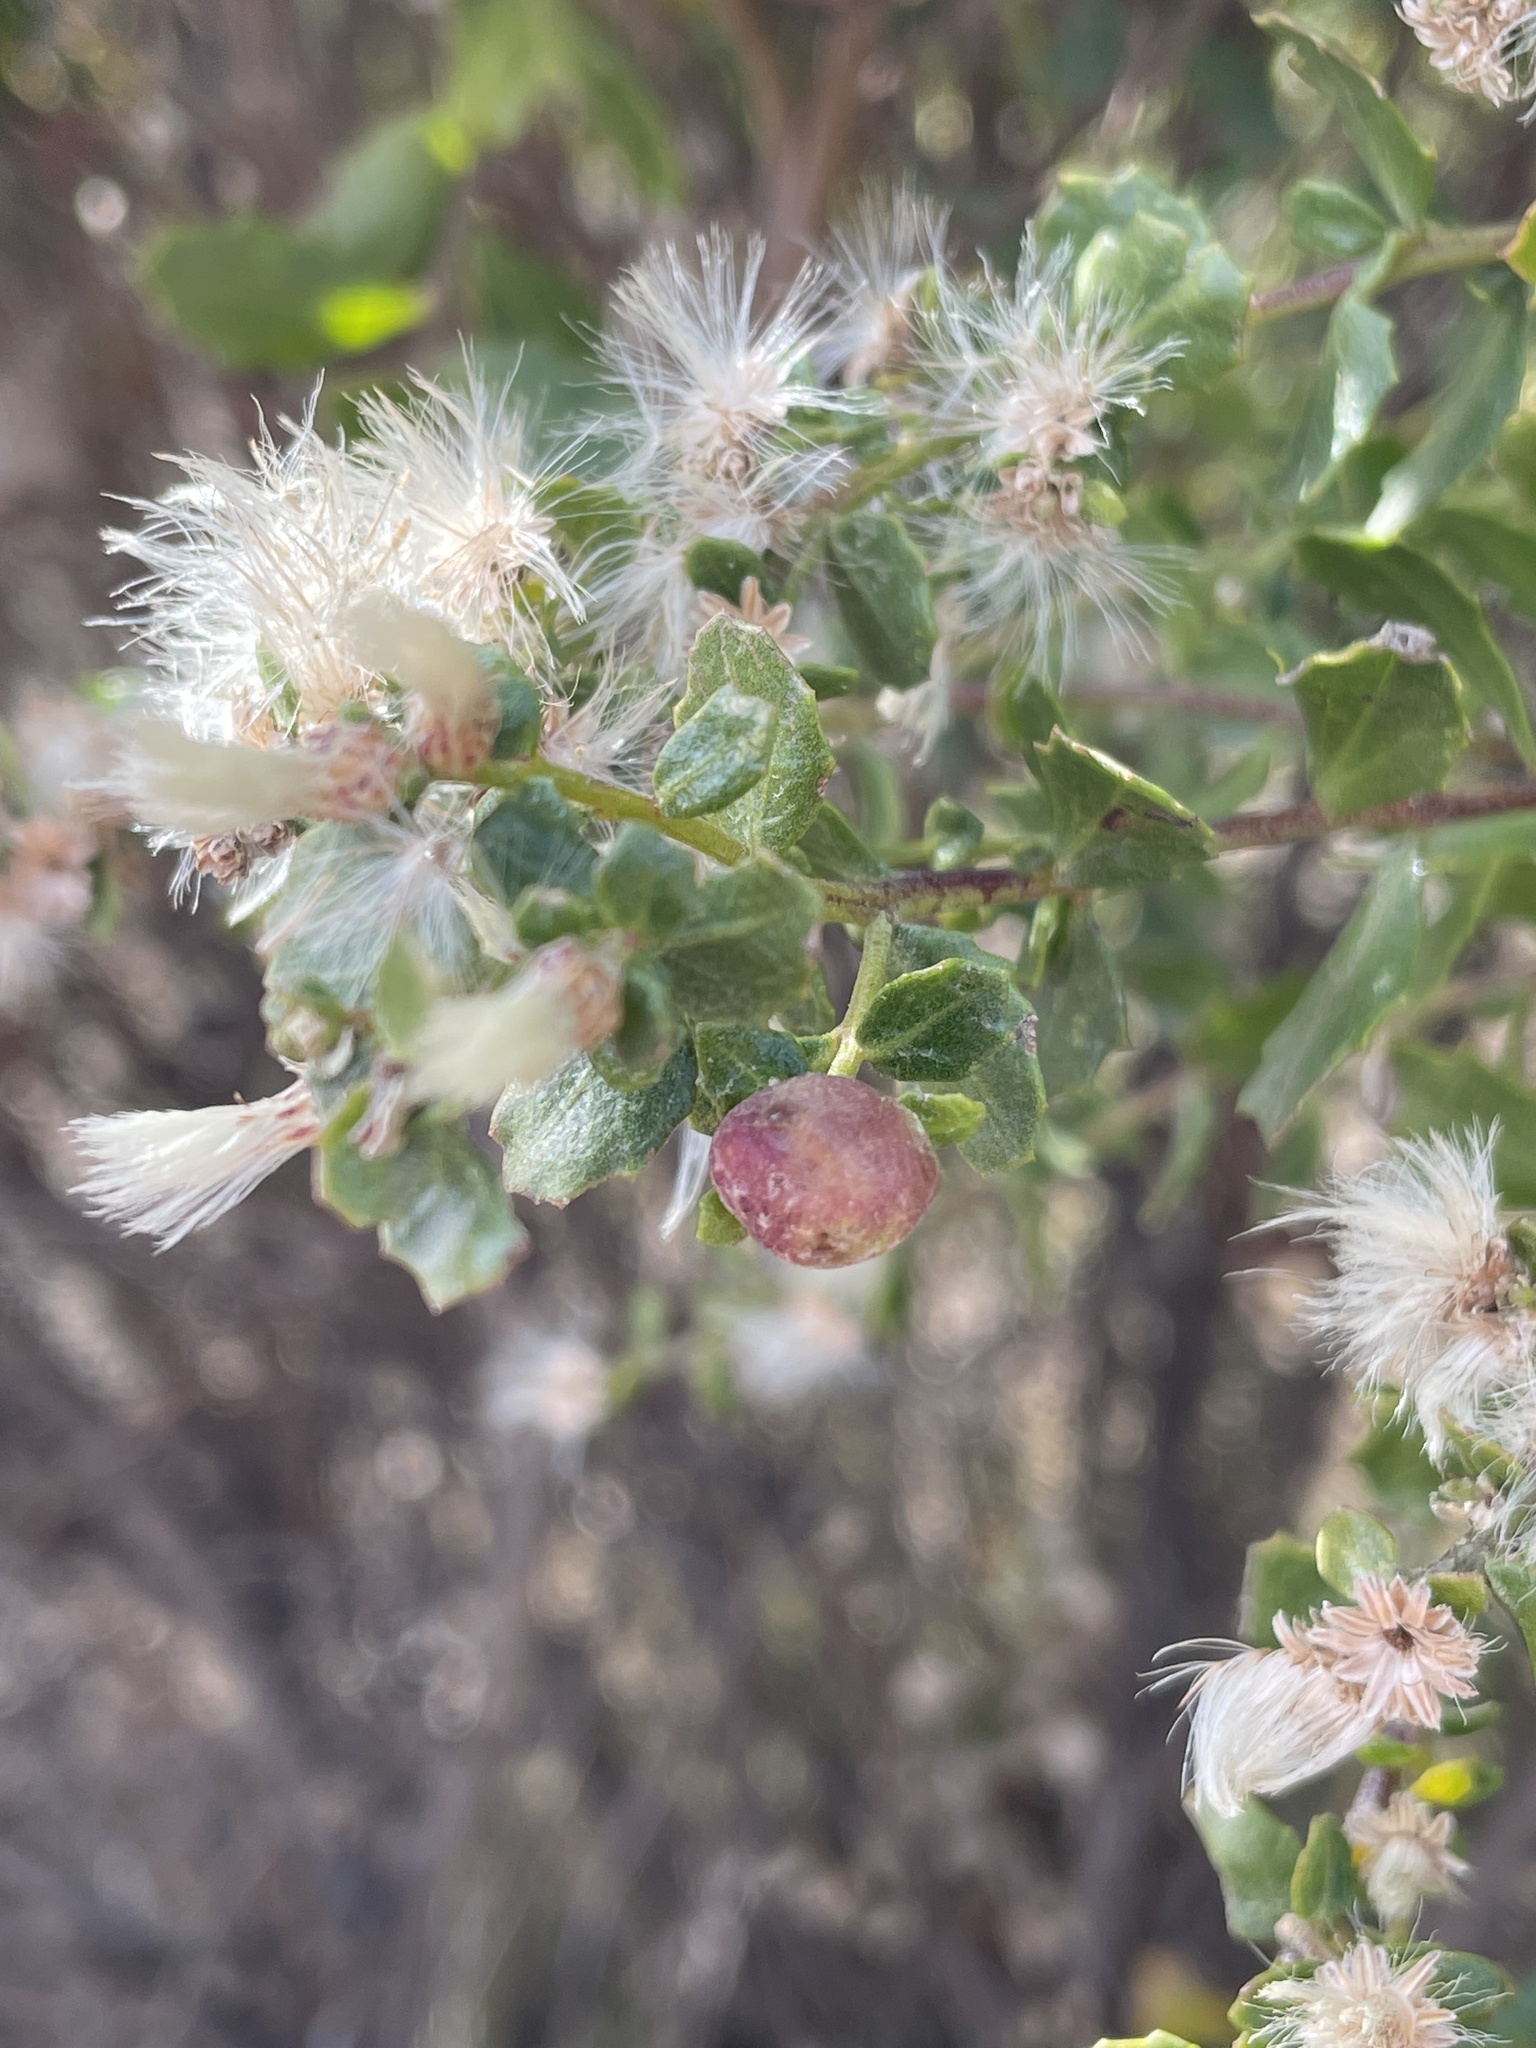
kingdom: Animalia
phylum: Arthropoda
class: Insecta
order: Diptera
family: Cecidomyiidae
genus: Rhopalomyia
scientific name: Rhopalomyia californica
